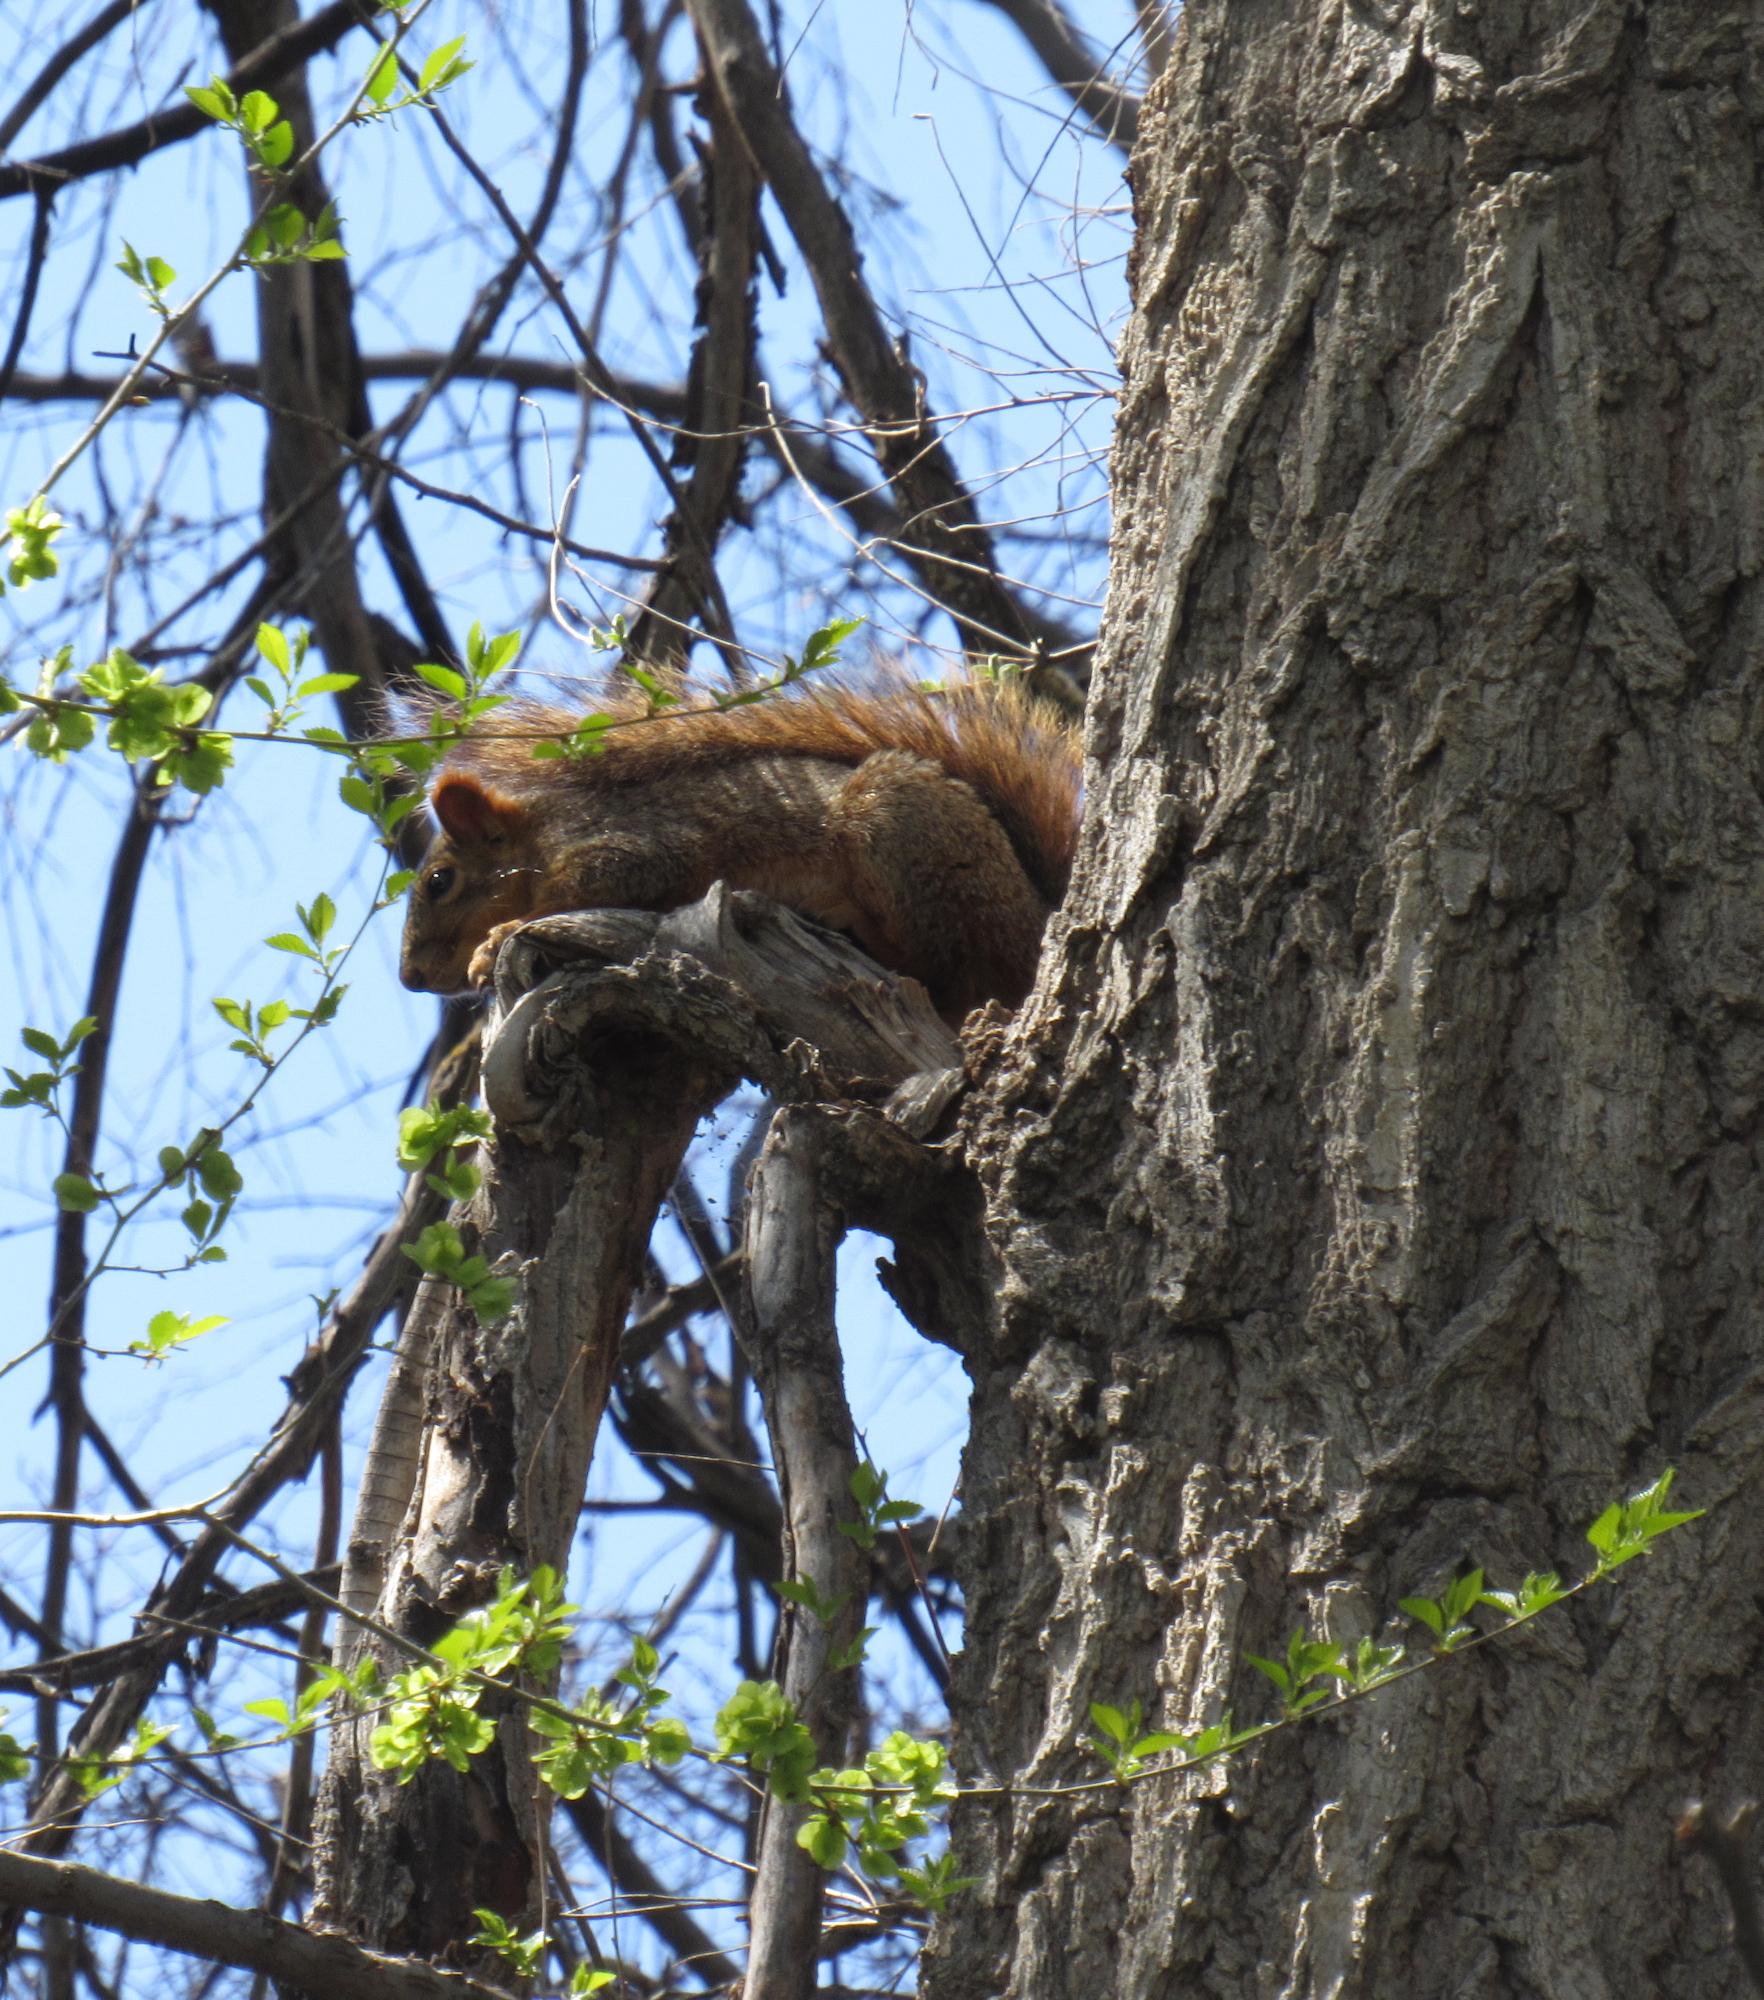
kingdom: Animalia
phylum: Chordata
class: Mammalia
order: Rodentia
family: Sciuridae
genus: Sciurus
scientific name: Sciurus niger
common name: Fox squirrel
